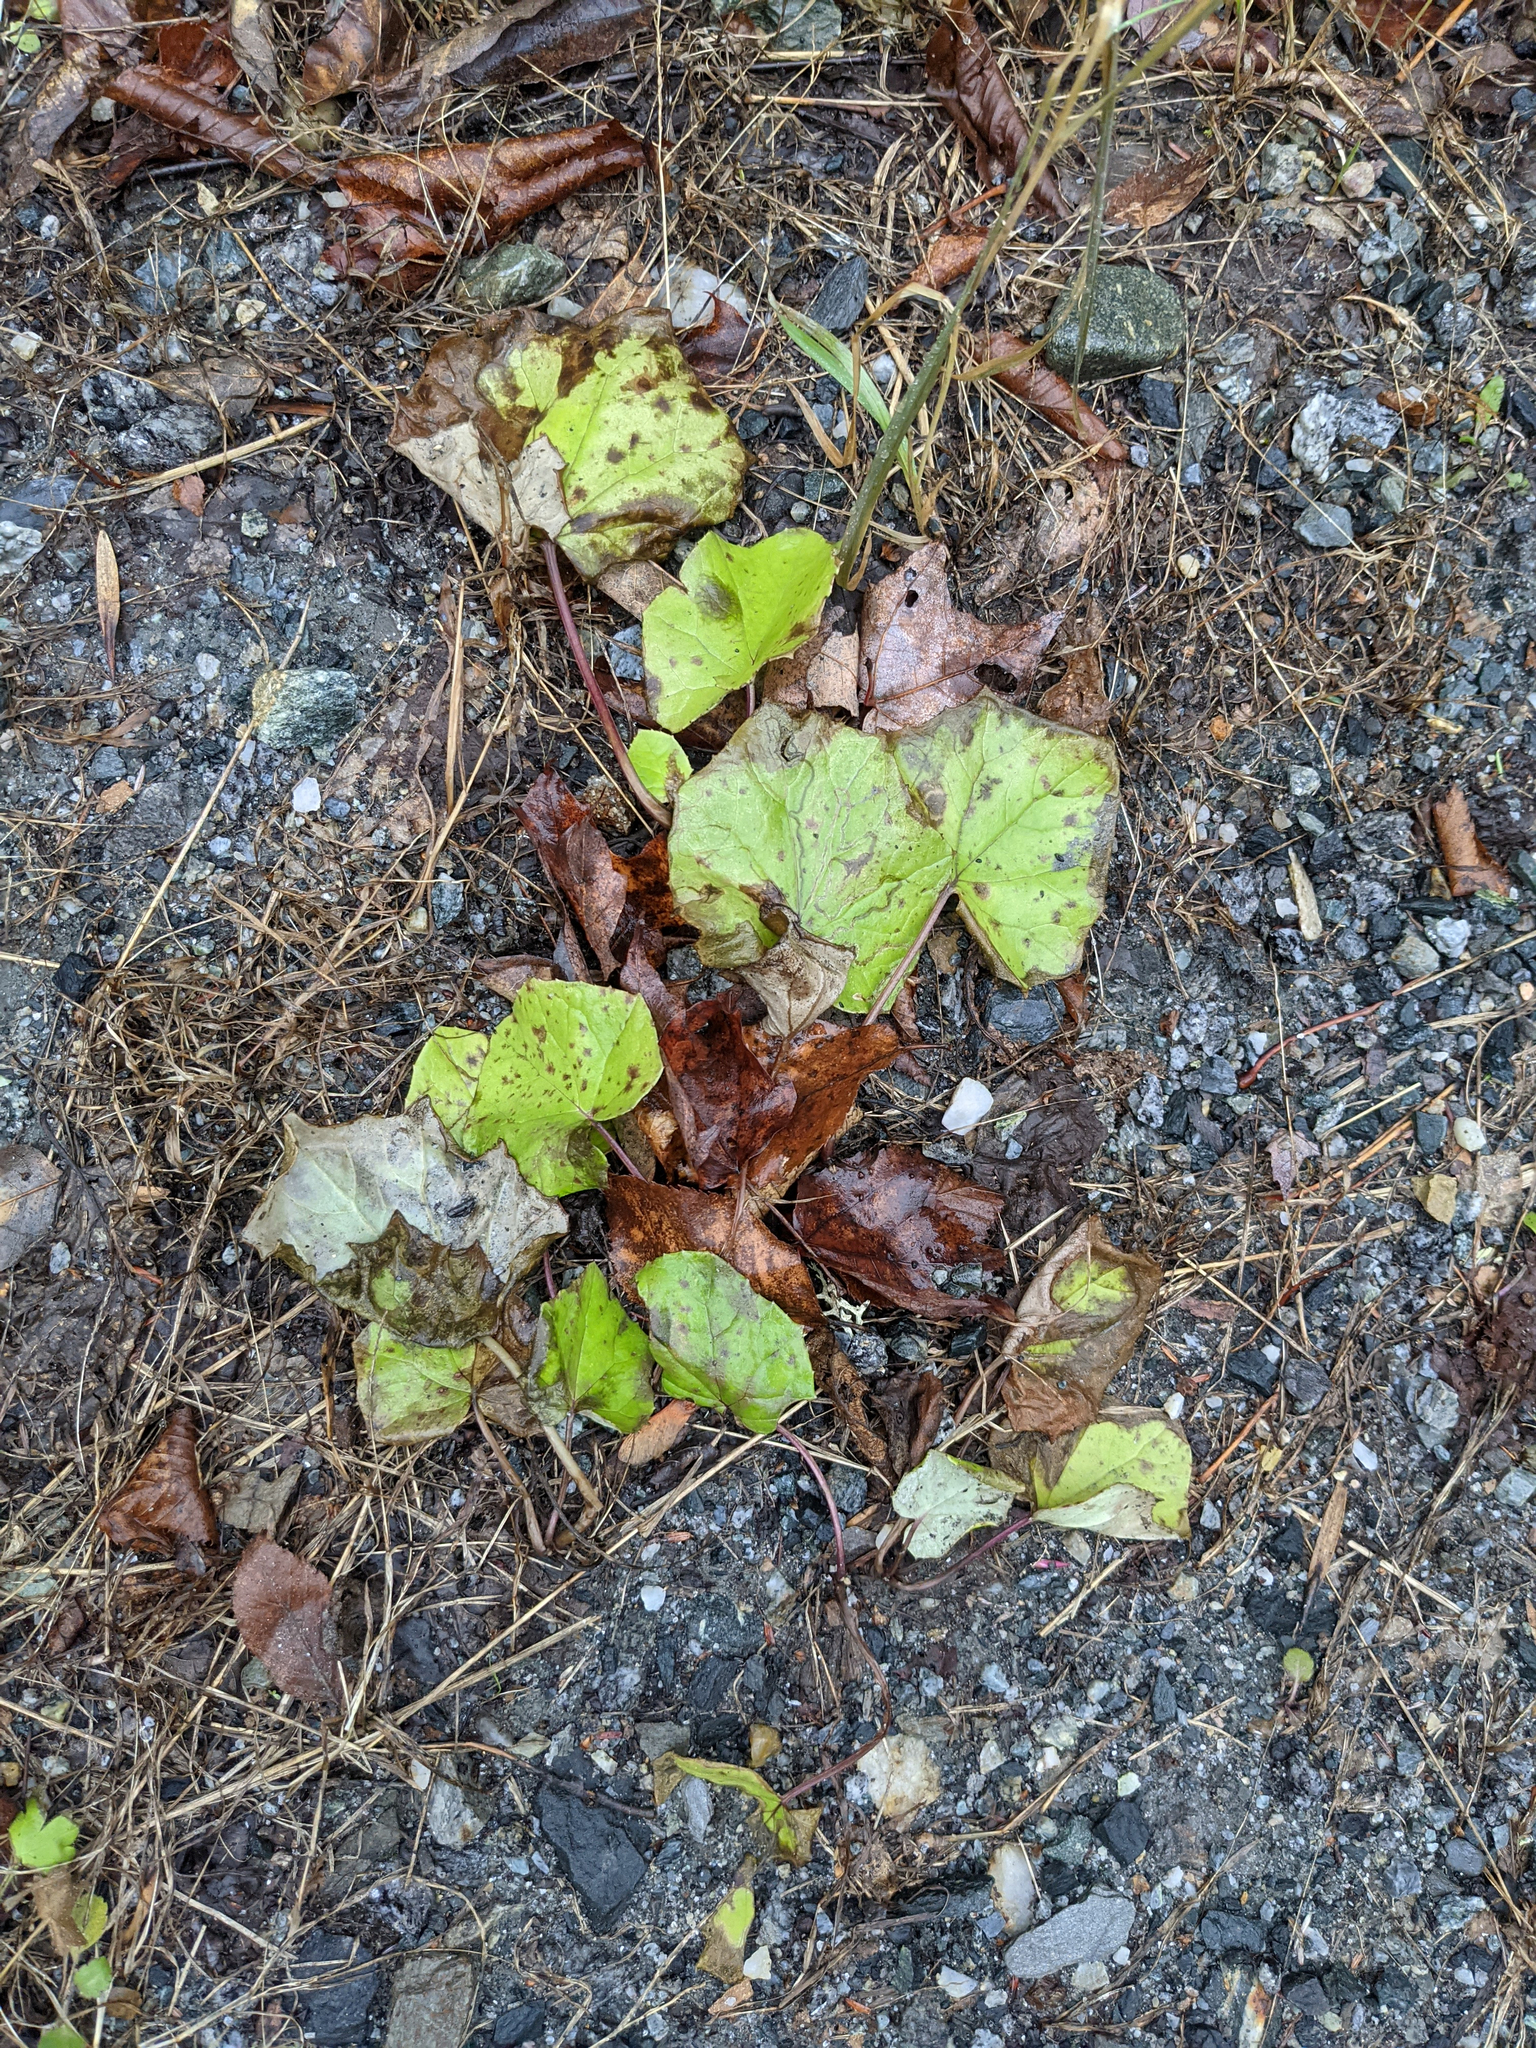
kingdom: Plantae
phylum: Tracheophyta
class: Magnoliopsida
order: Asterales
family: Asteraceae
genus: Tussilago
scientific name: Tussilago farfara
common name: Coltsfoot
